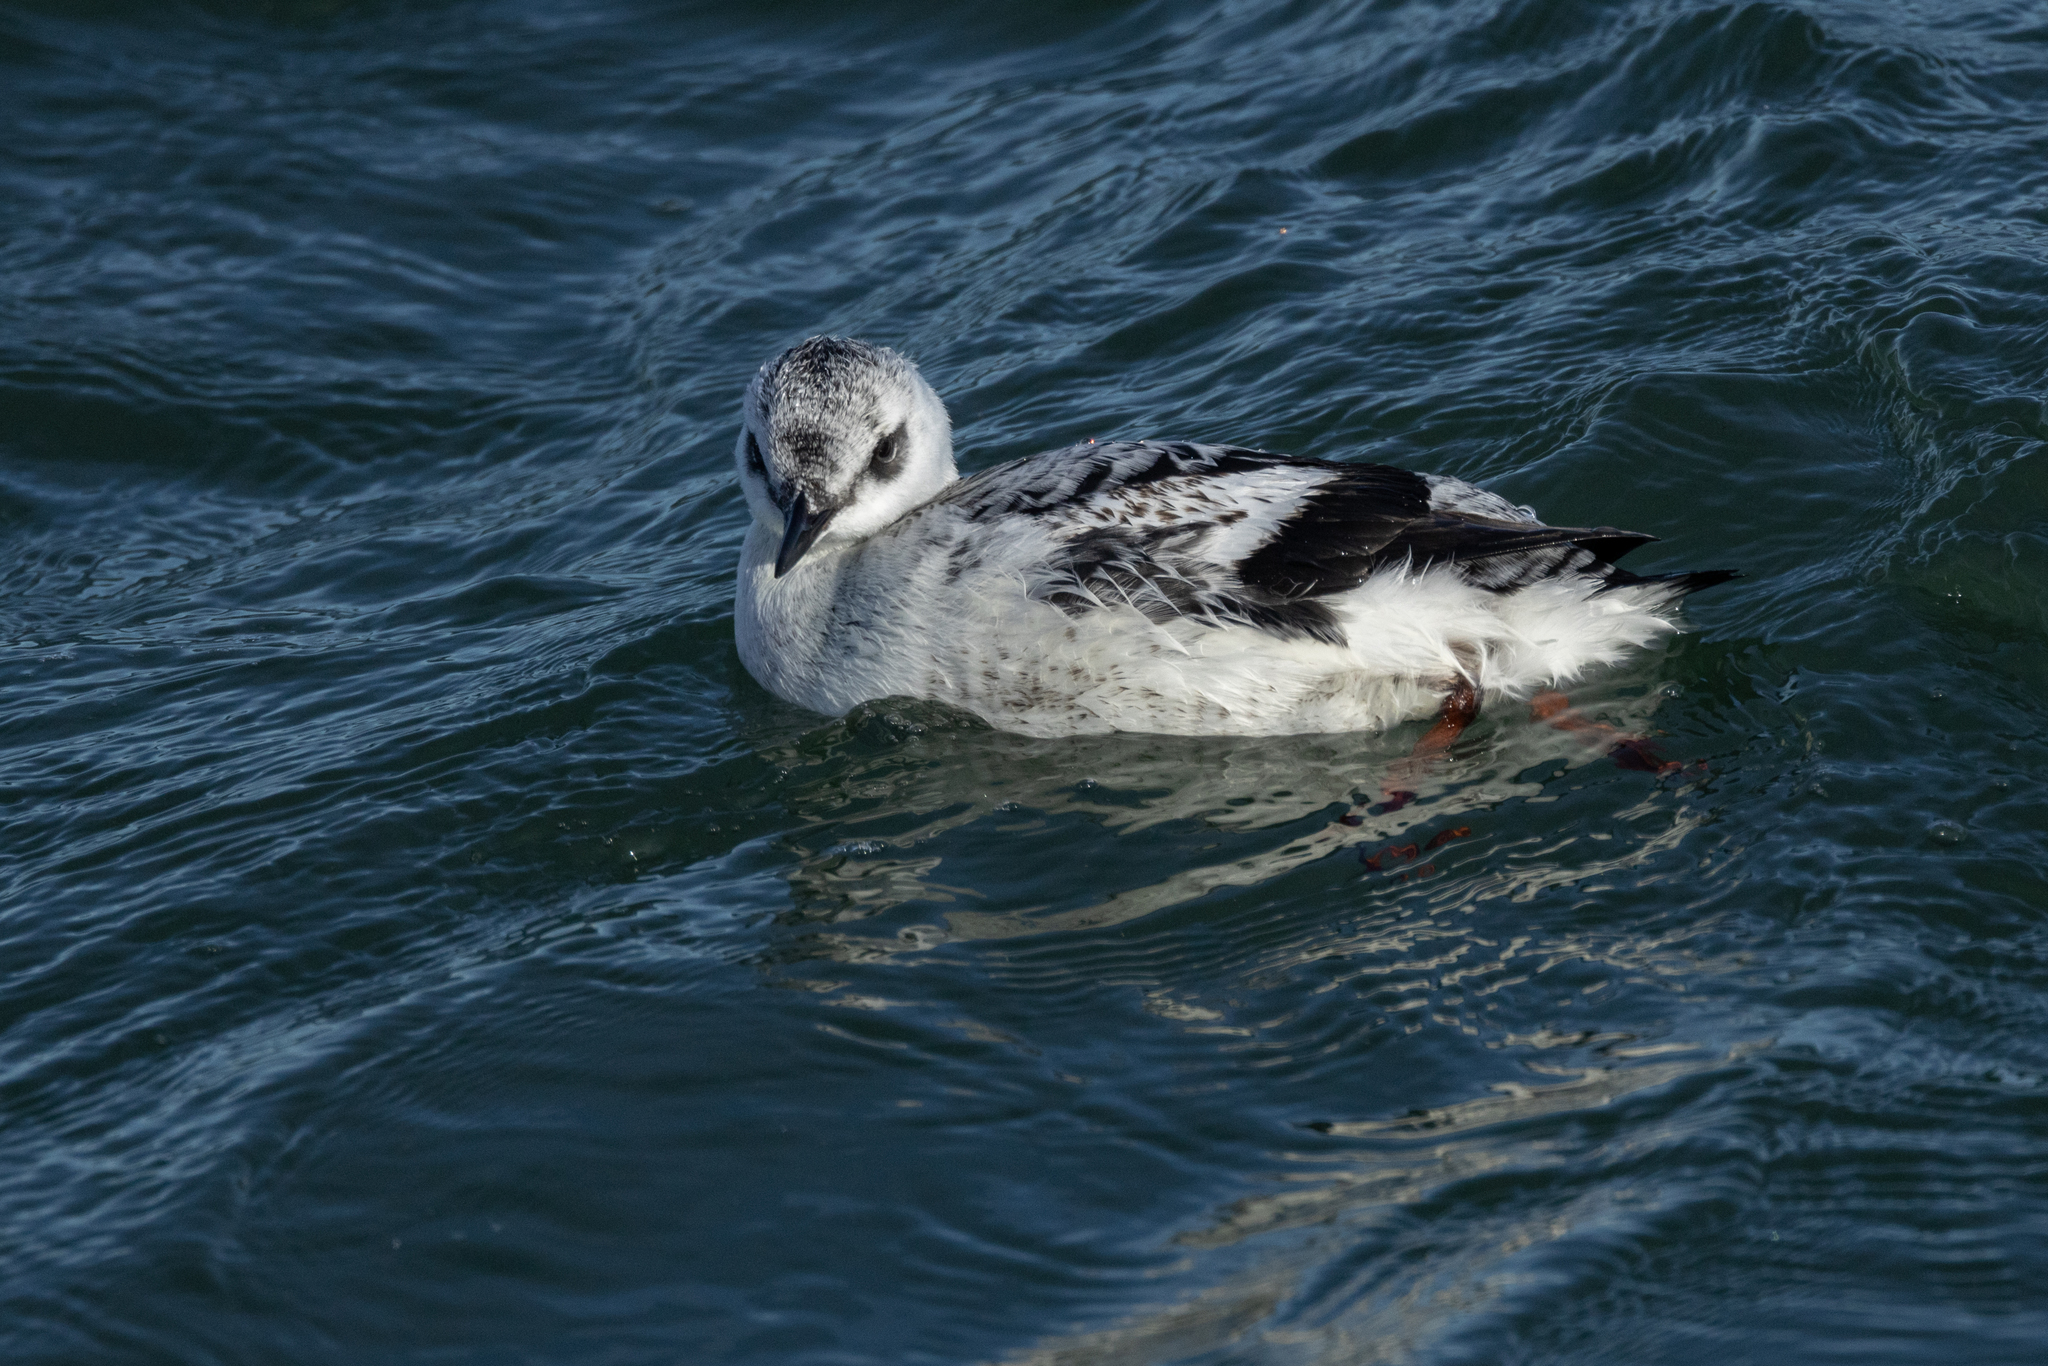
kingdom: Animalia
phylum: Chordata
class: Aves
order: Charadriiformes
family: Alcidae
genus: Cepphus
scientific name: Cepphus grylle
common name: Black guillemot
